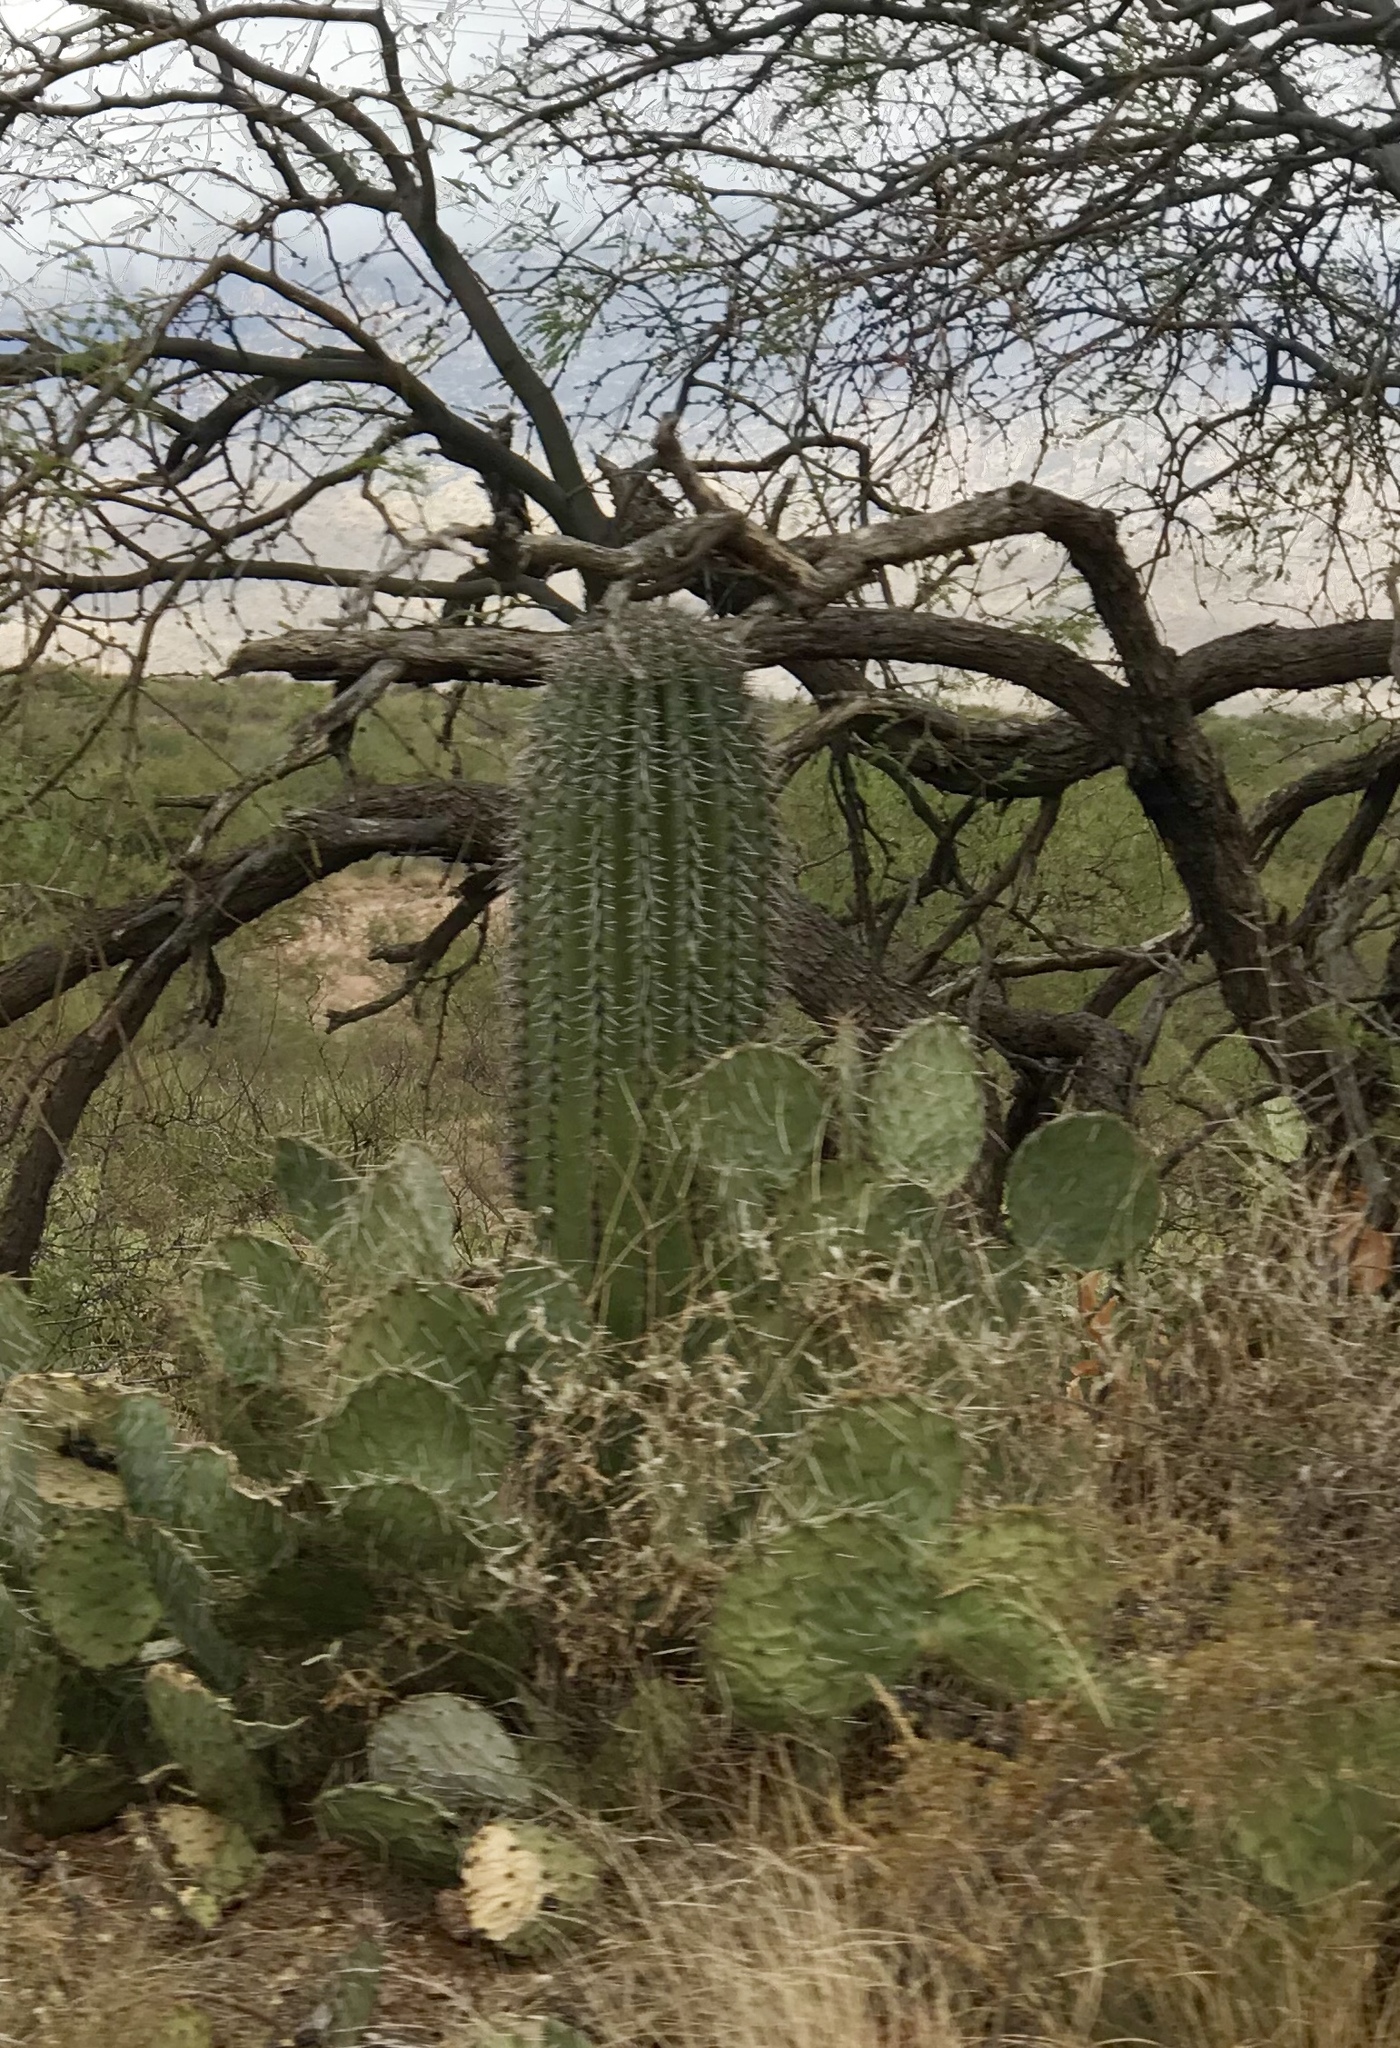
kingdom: Plantae
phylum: Tracheophyta
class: Magnoliopsida
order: Caryophyllales
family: Cactaceae
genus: Carnegiea
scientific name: Carnegiea gigantea
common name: Saguaro
